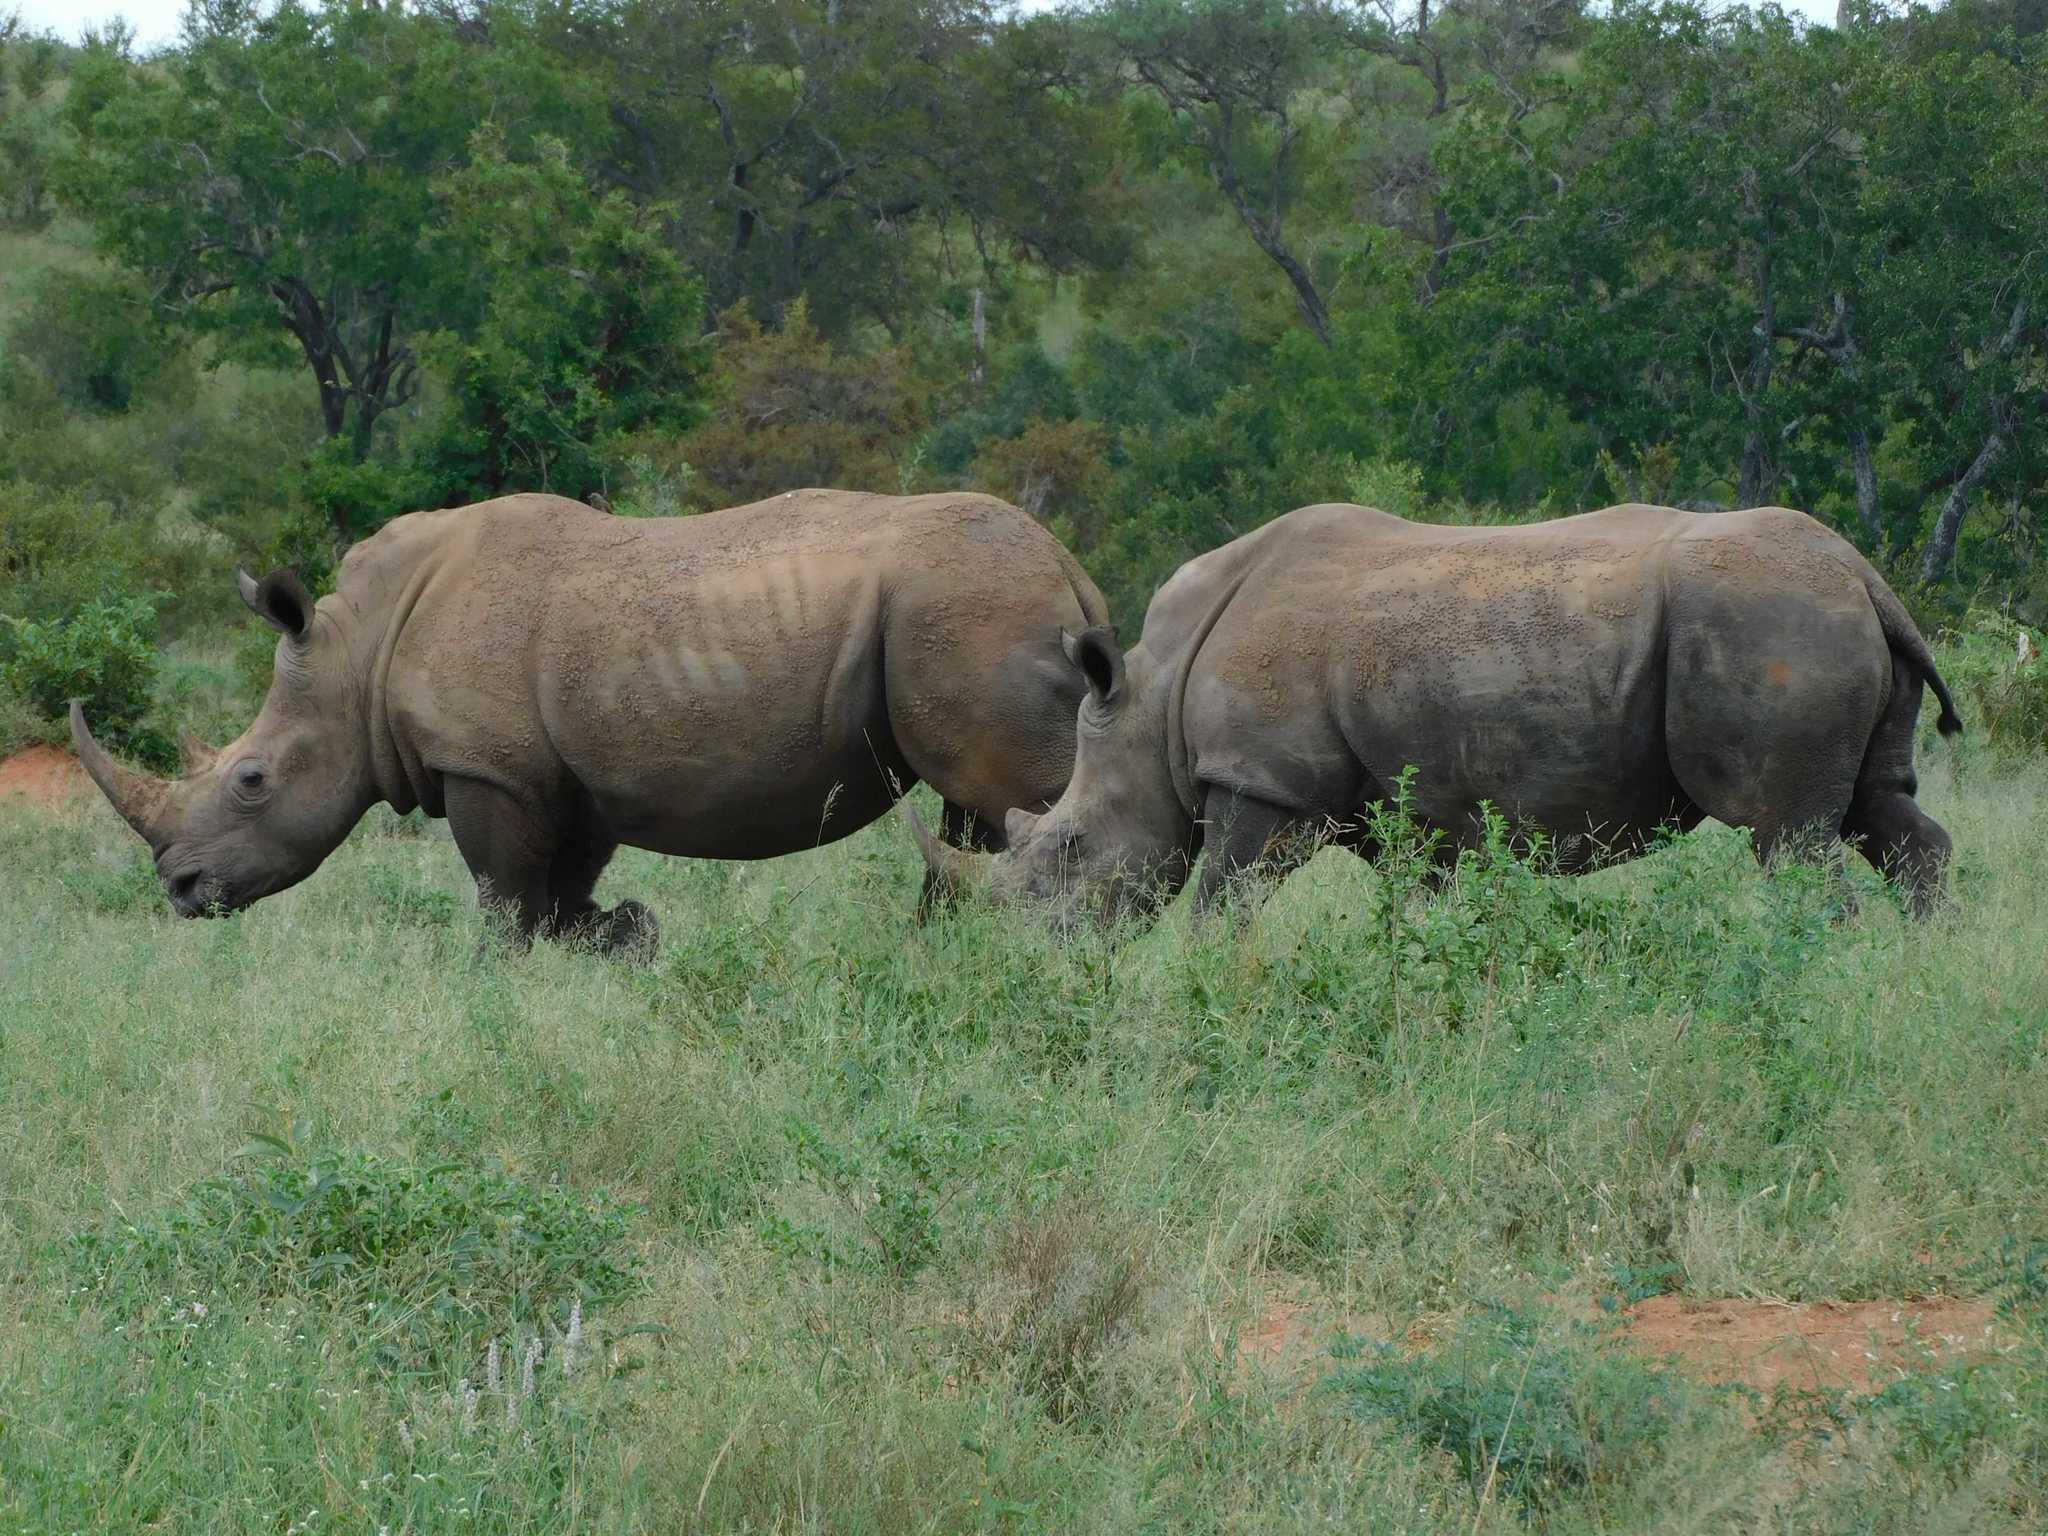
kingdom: Animalia
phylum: Chordata
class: Mammalia
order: Perissodactyla
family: Rhinocerotidae
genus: Ceratotherium
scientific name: Ceratotherium simum
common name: White rhinoceros
